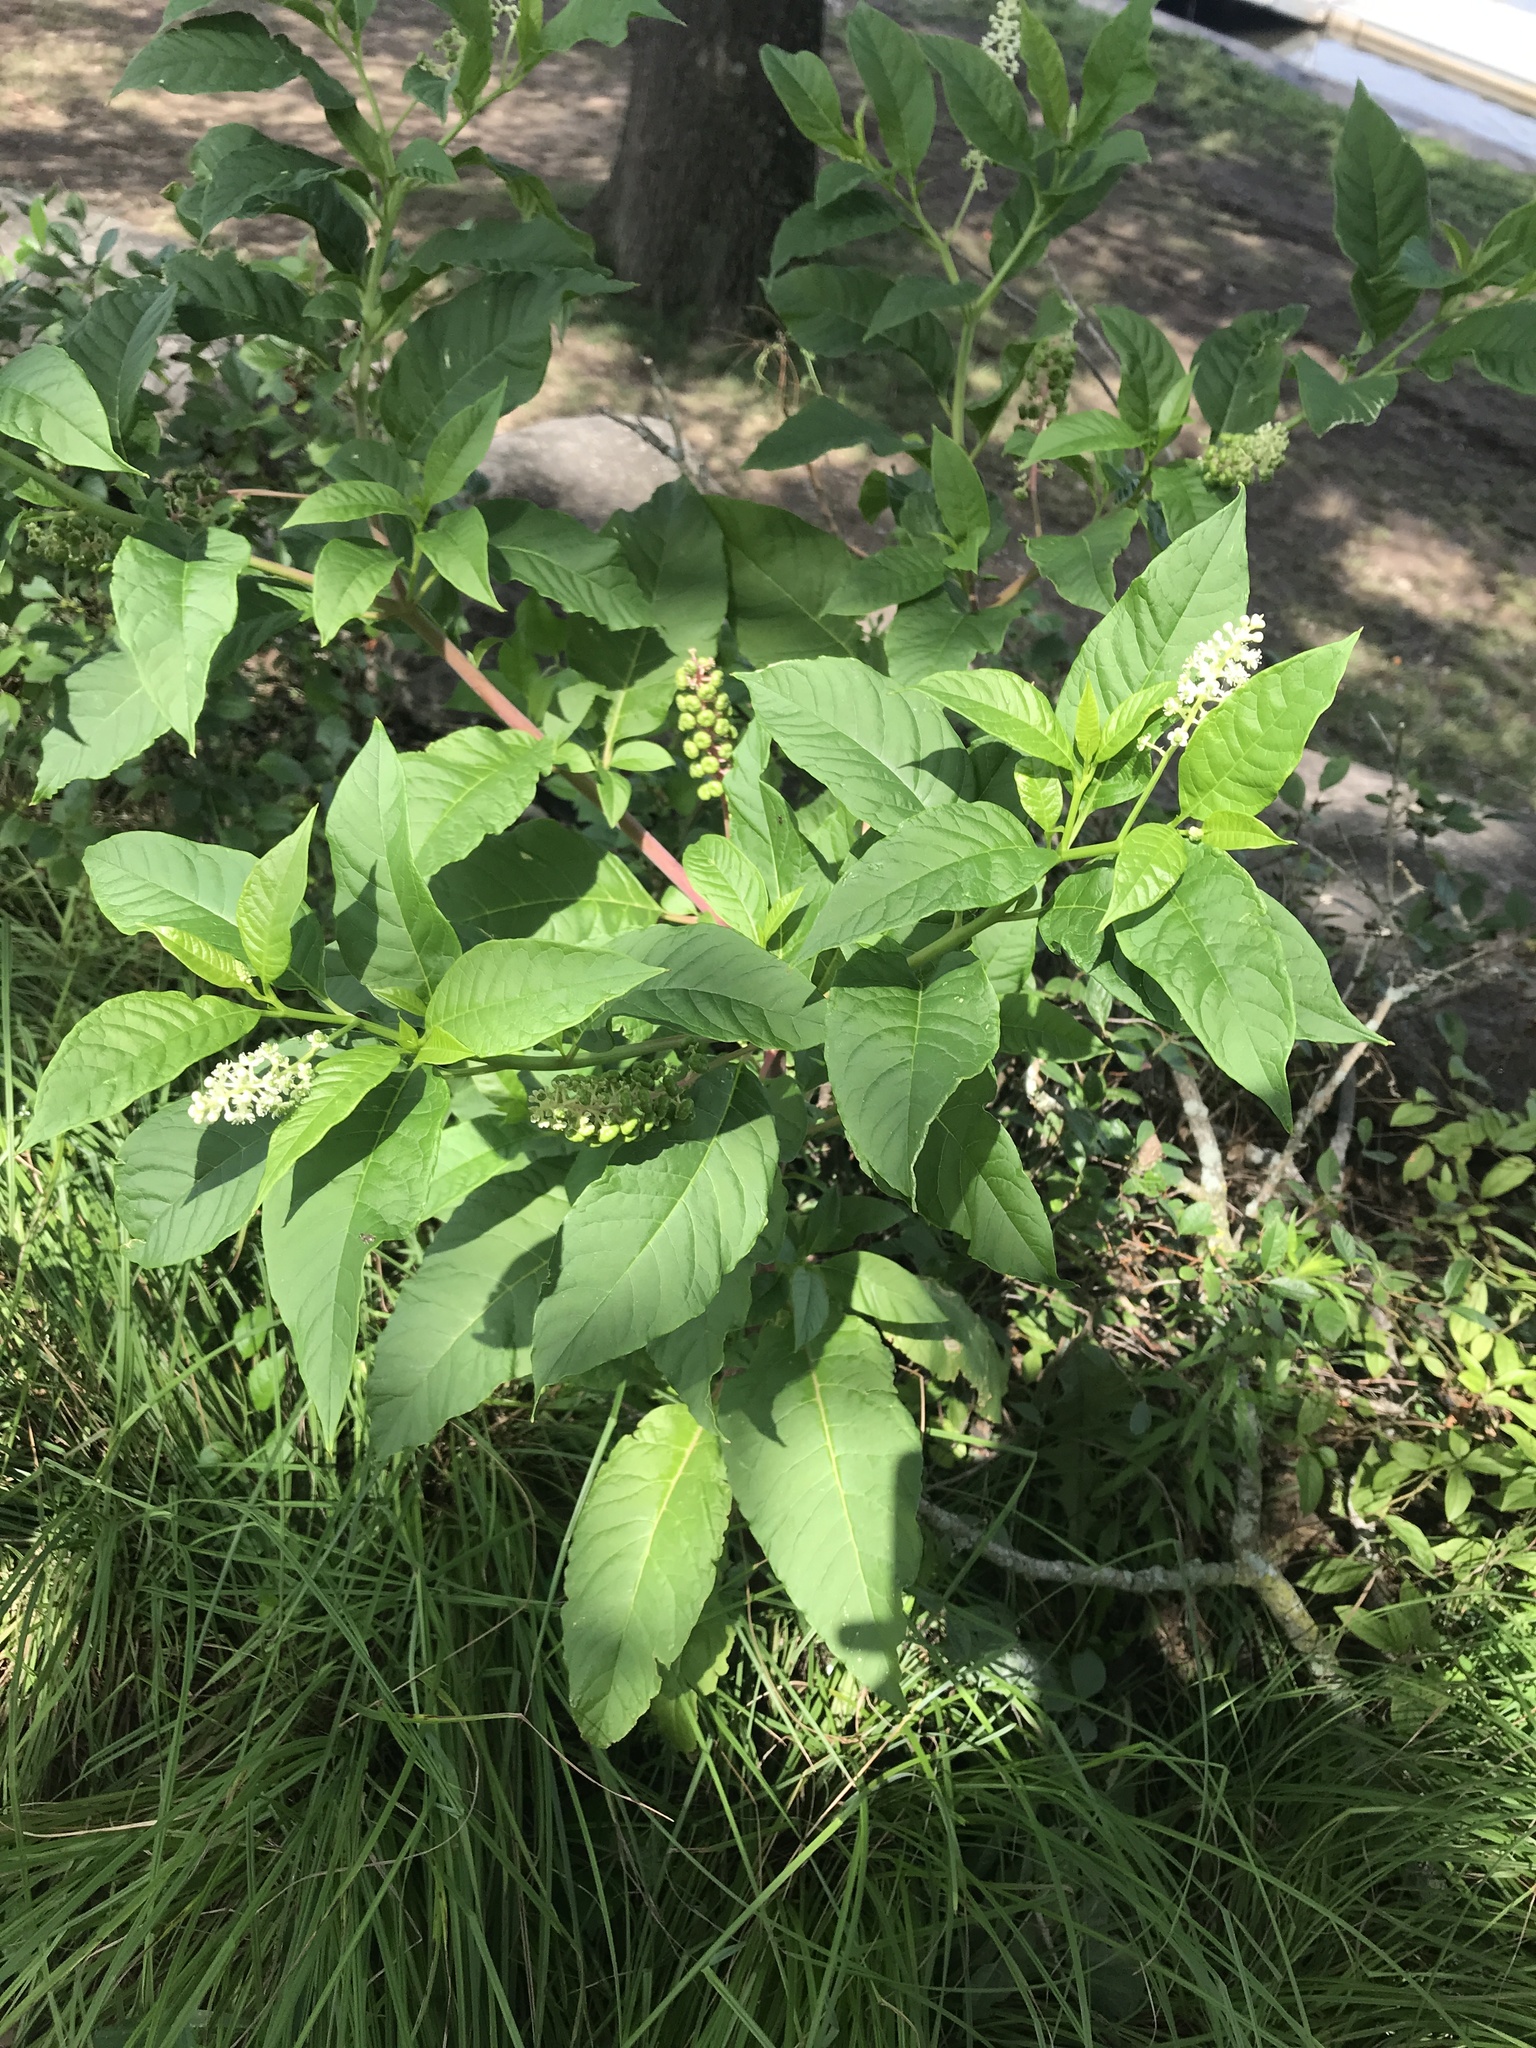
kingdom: Plantae
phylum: Tracheophyta
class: Magnoliopsida
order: Caryophyllales
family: Phytolaccaceae
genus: Phytolacca
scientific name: Phytolacca americana
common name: American pokeweed
